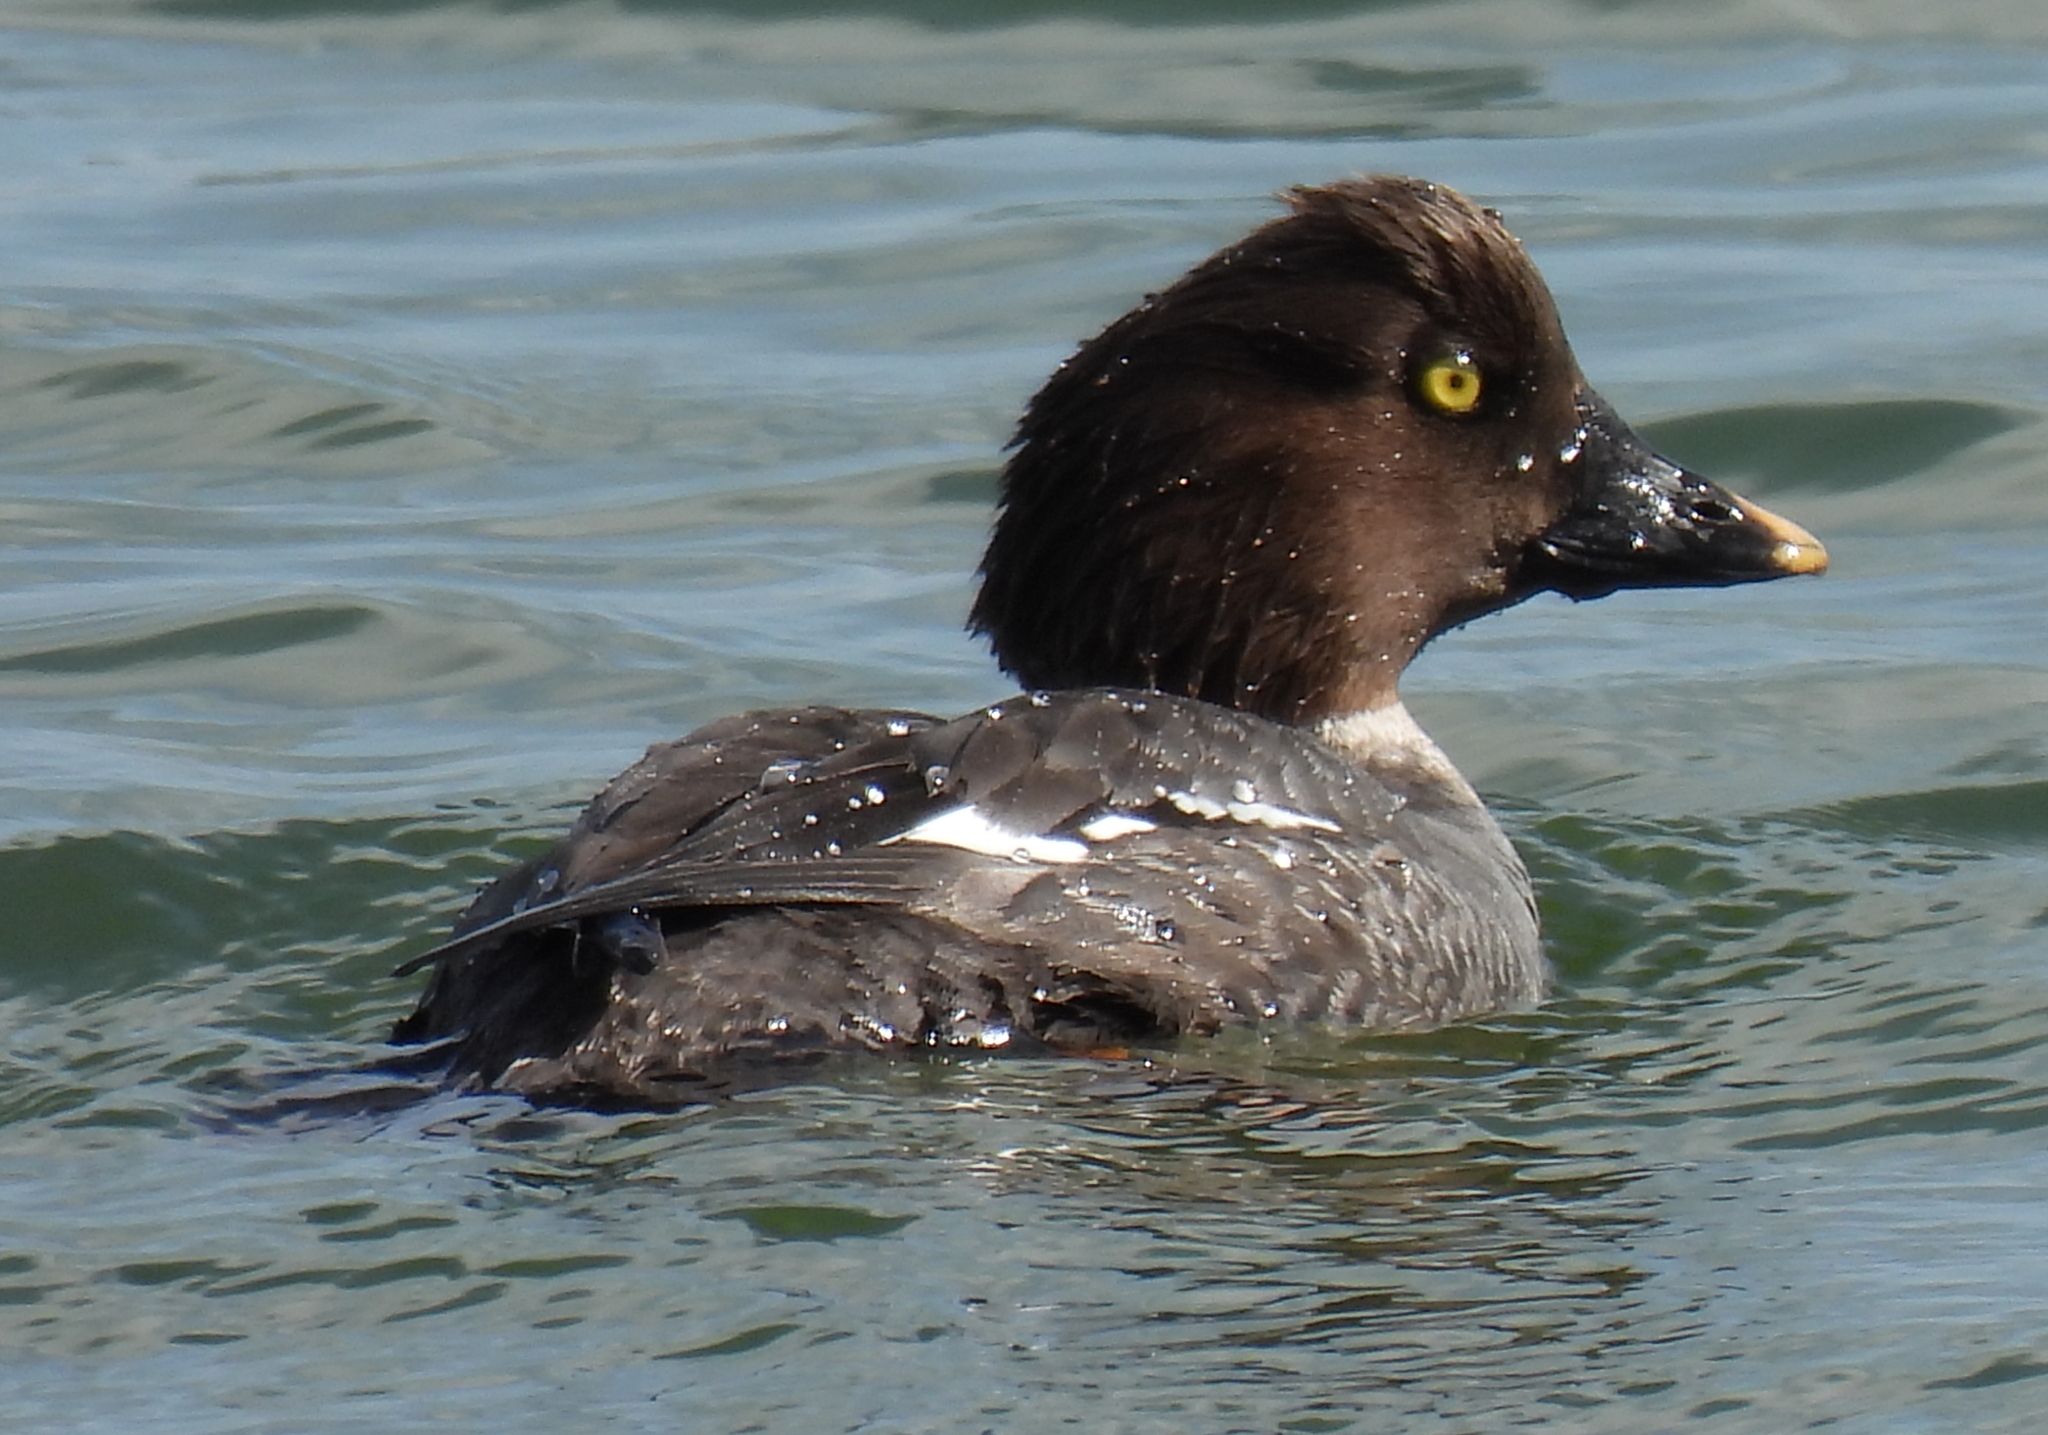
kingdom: Animalia
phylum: Chordata
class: Aves
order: Anseriformes
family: Anatidae
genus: Bucephala
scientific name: Bucephala clangula
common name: Common goldeneye
